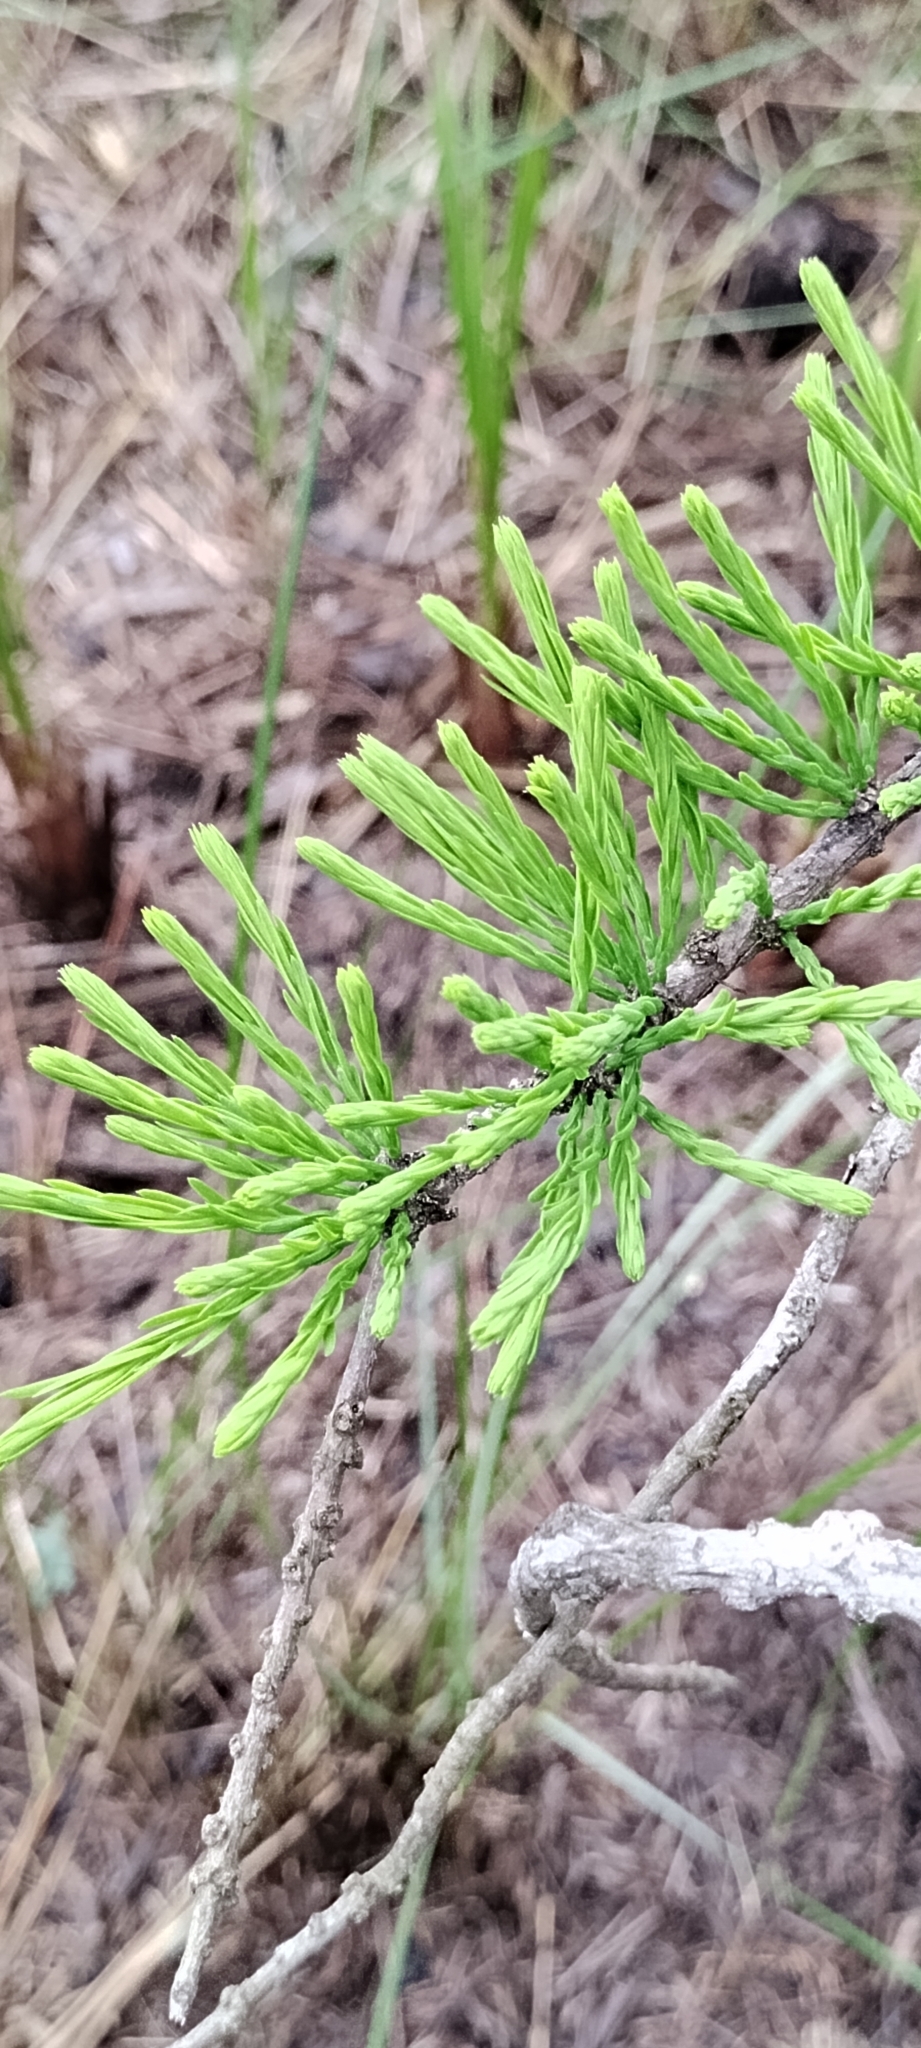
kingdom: Plantae
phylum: Tracheophyta
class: Pinopsida
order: Pinales
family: Cupressaceae
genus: Taxodium
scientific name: Taxodium distichum
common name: Bald cypress
